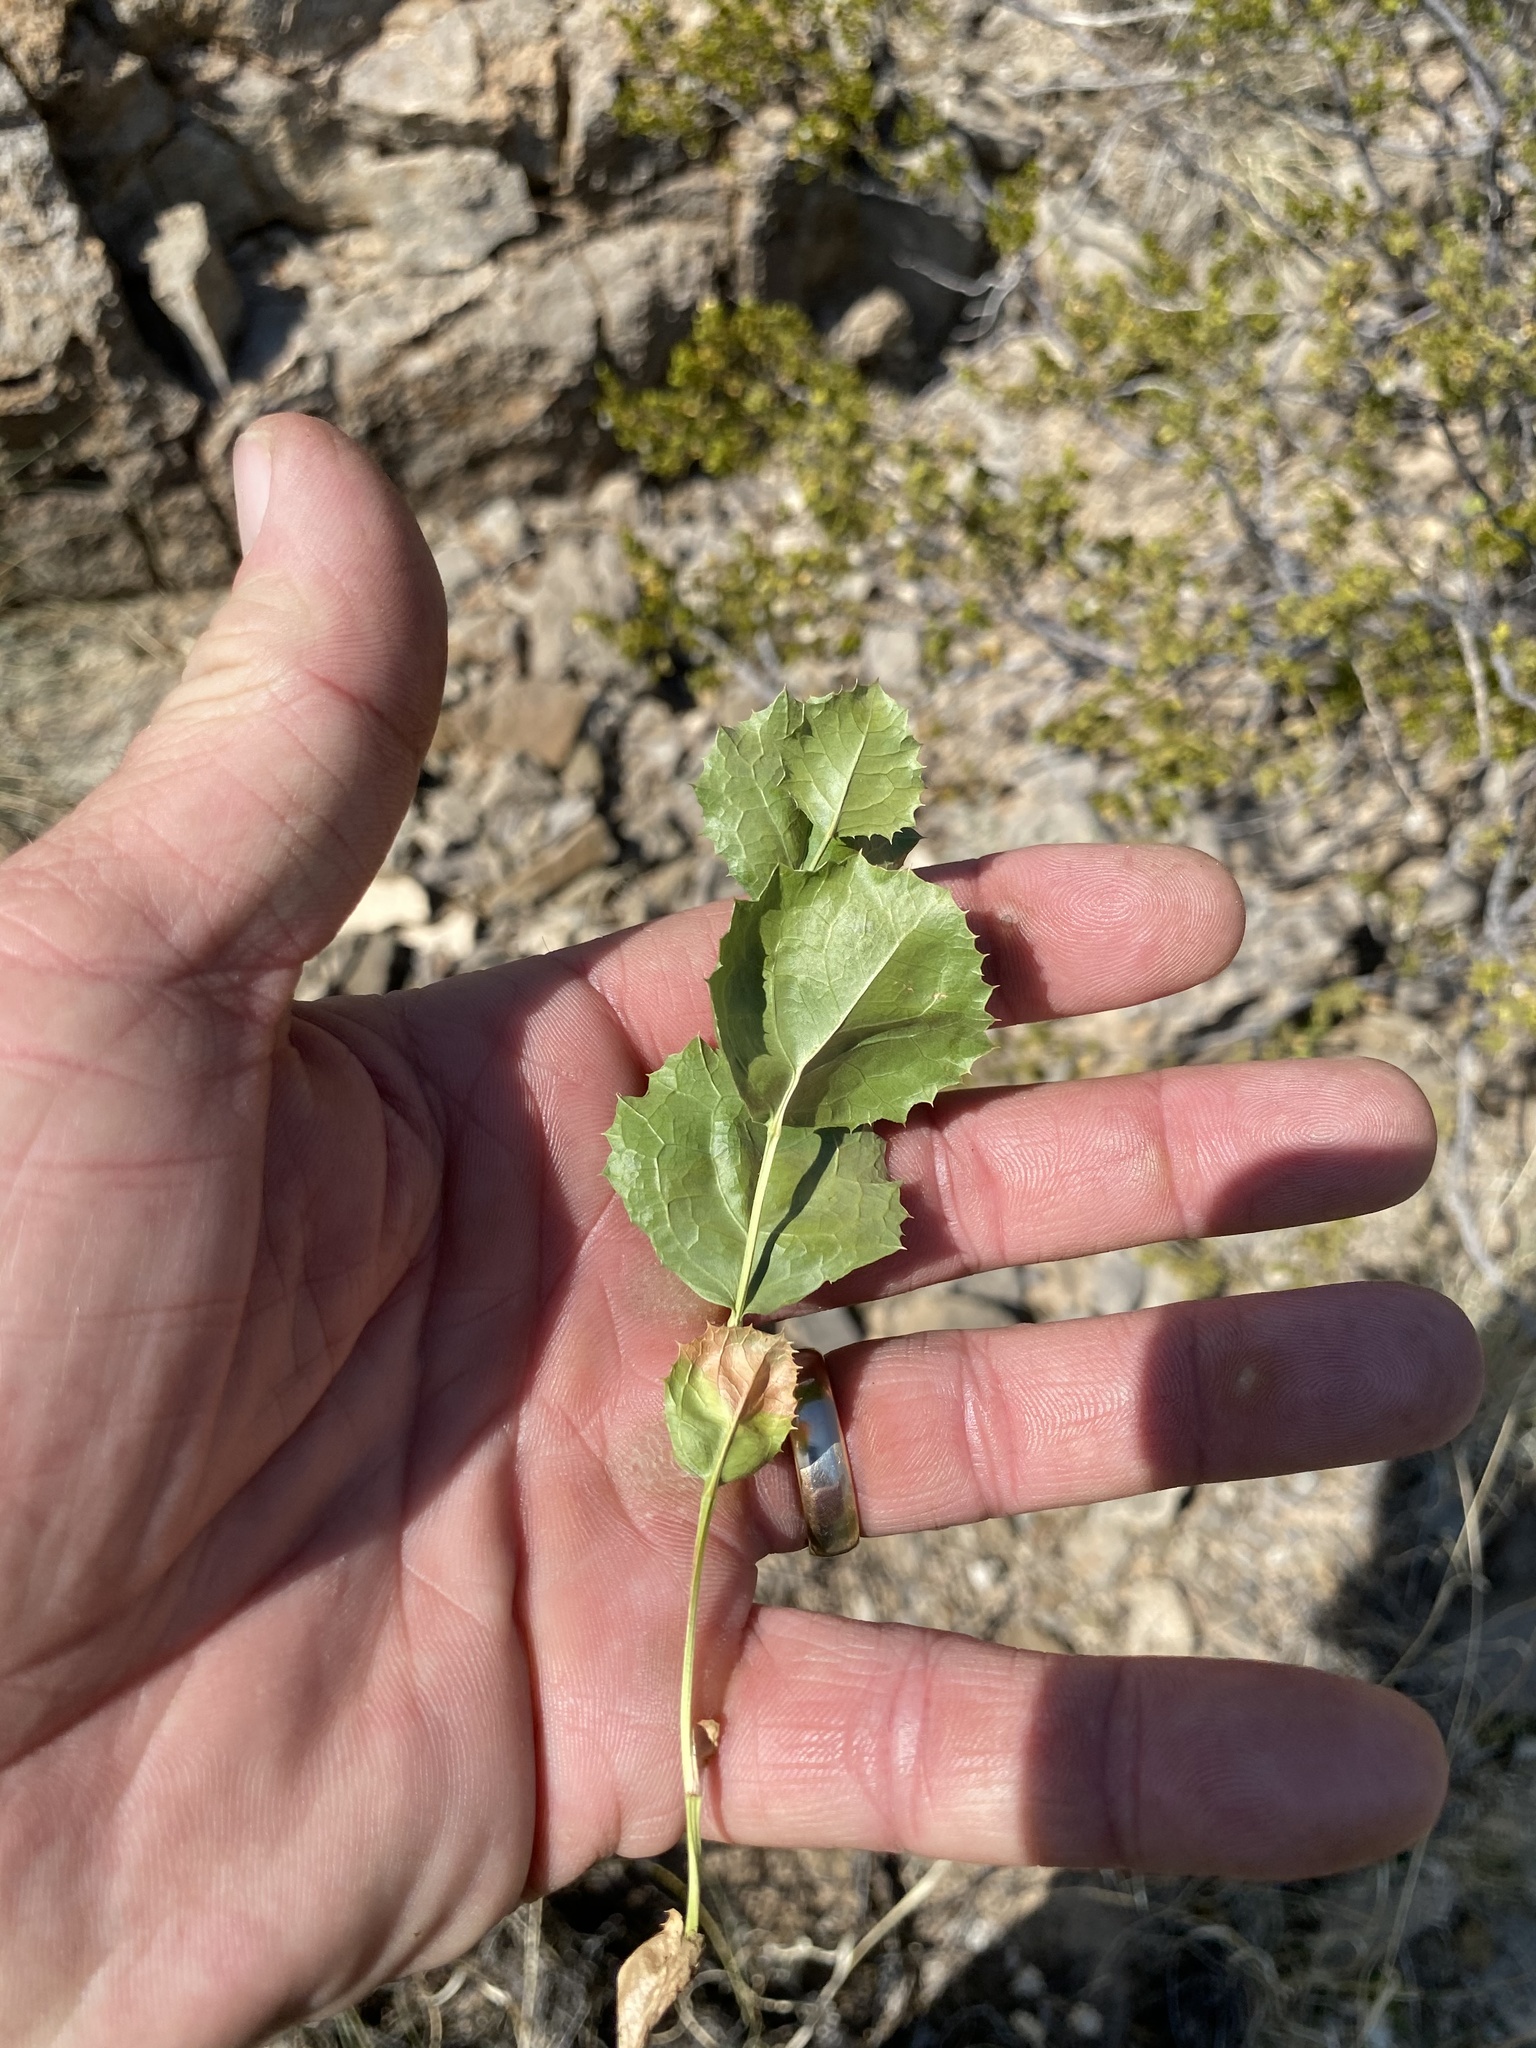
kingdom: Plantae
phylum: Tracheophyta
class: Magnoliopsida
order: Asterales
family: Asteraceae
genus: Acourtia
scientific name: Acourtia nana
